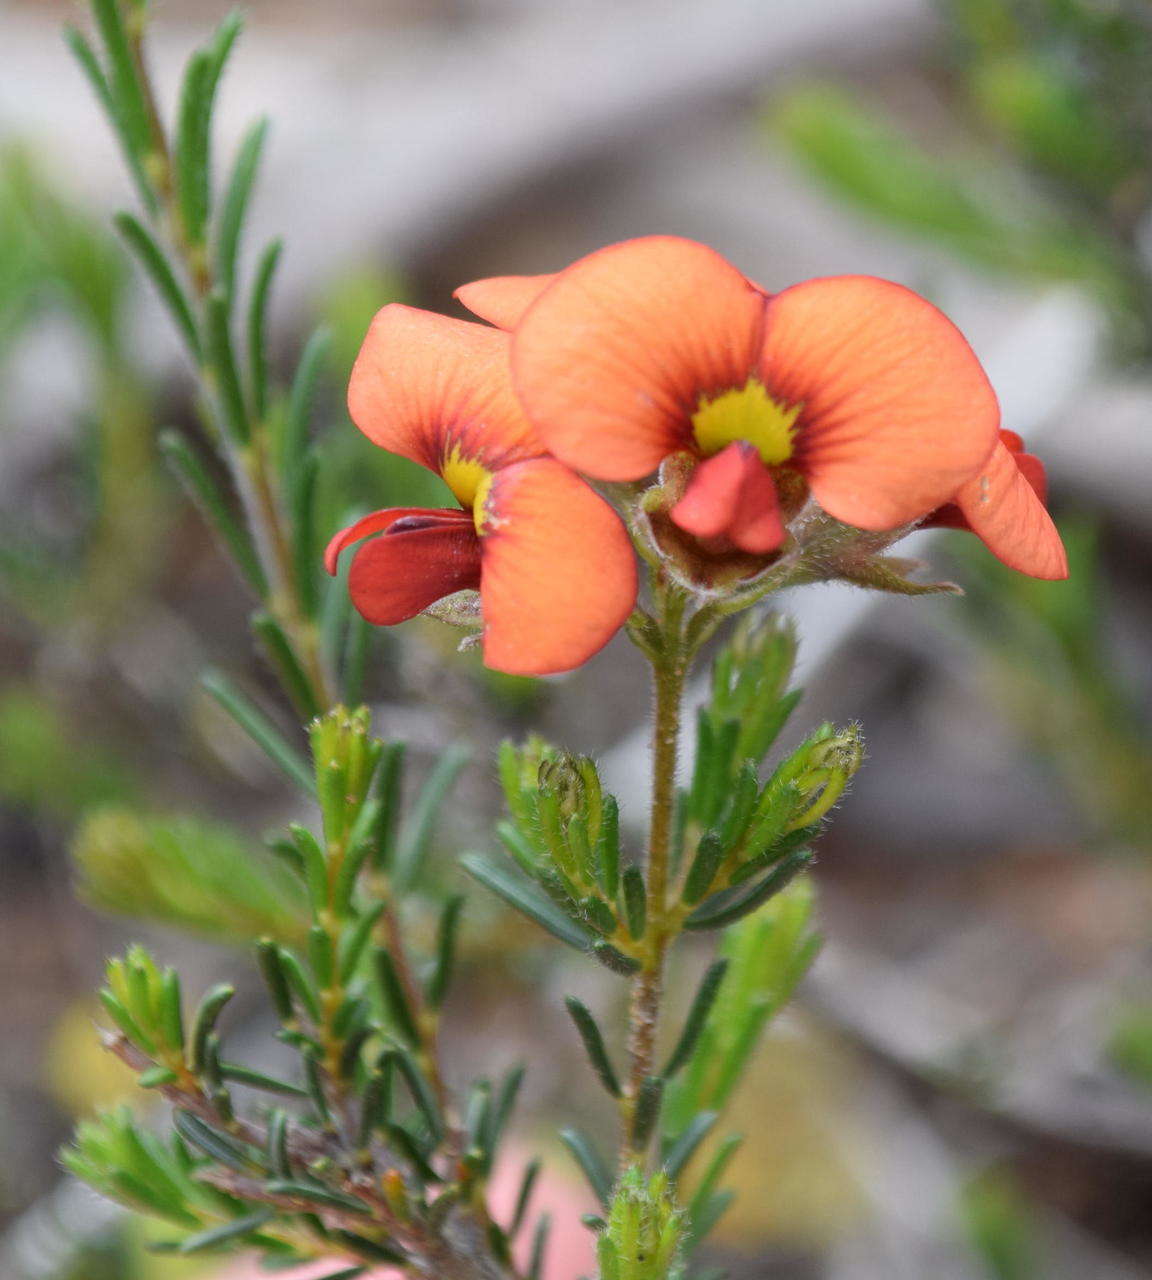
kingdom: Plantae
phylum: Tracheophyta
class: Magnoliopsida
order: Fabales
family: Fabaceae
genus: Dillwynia
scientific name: Dillwynia hispida
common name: Red parrot-pea
